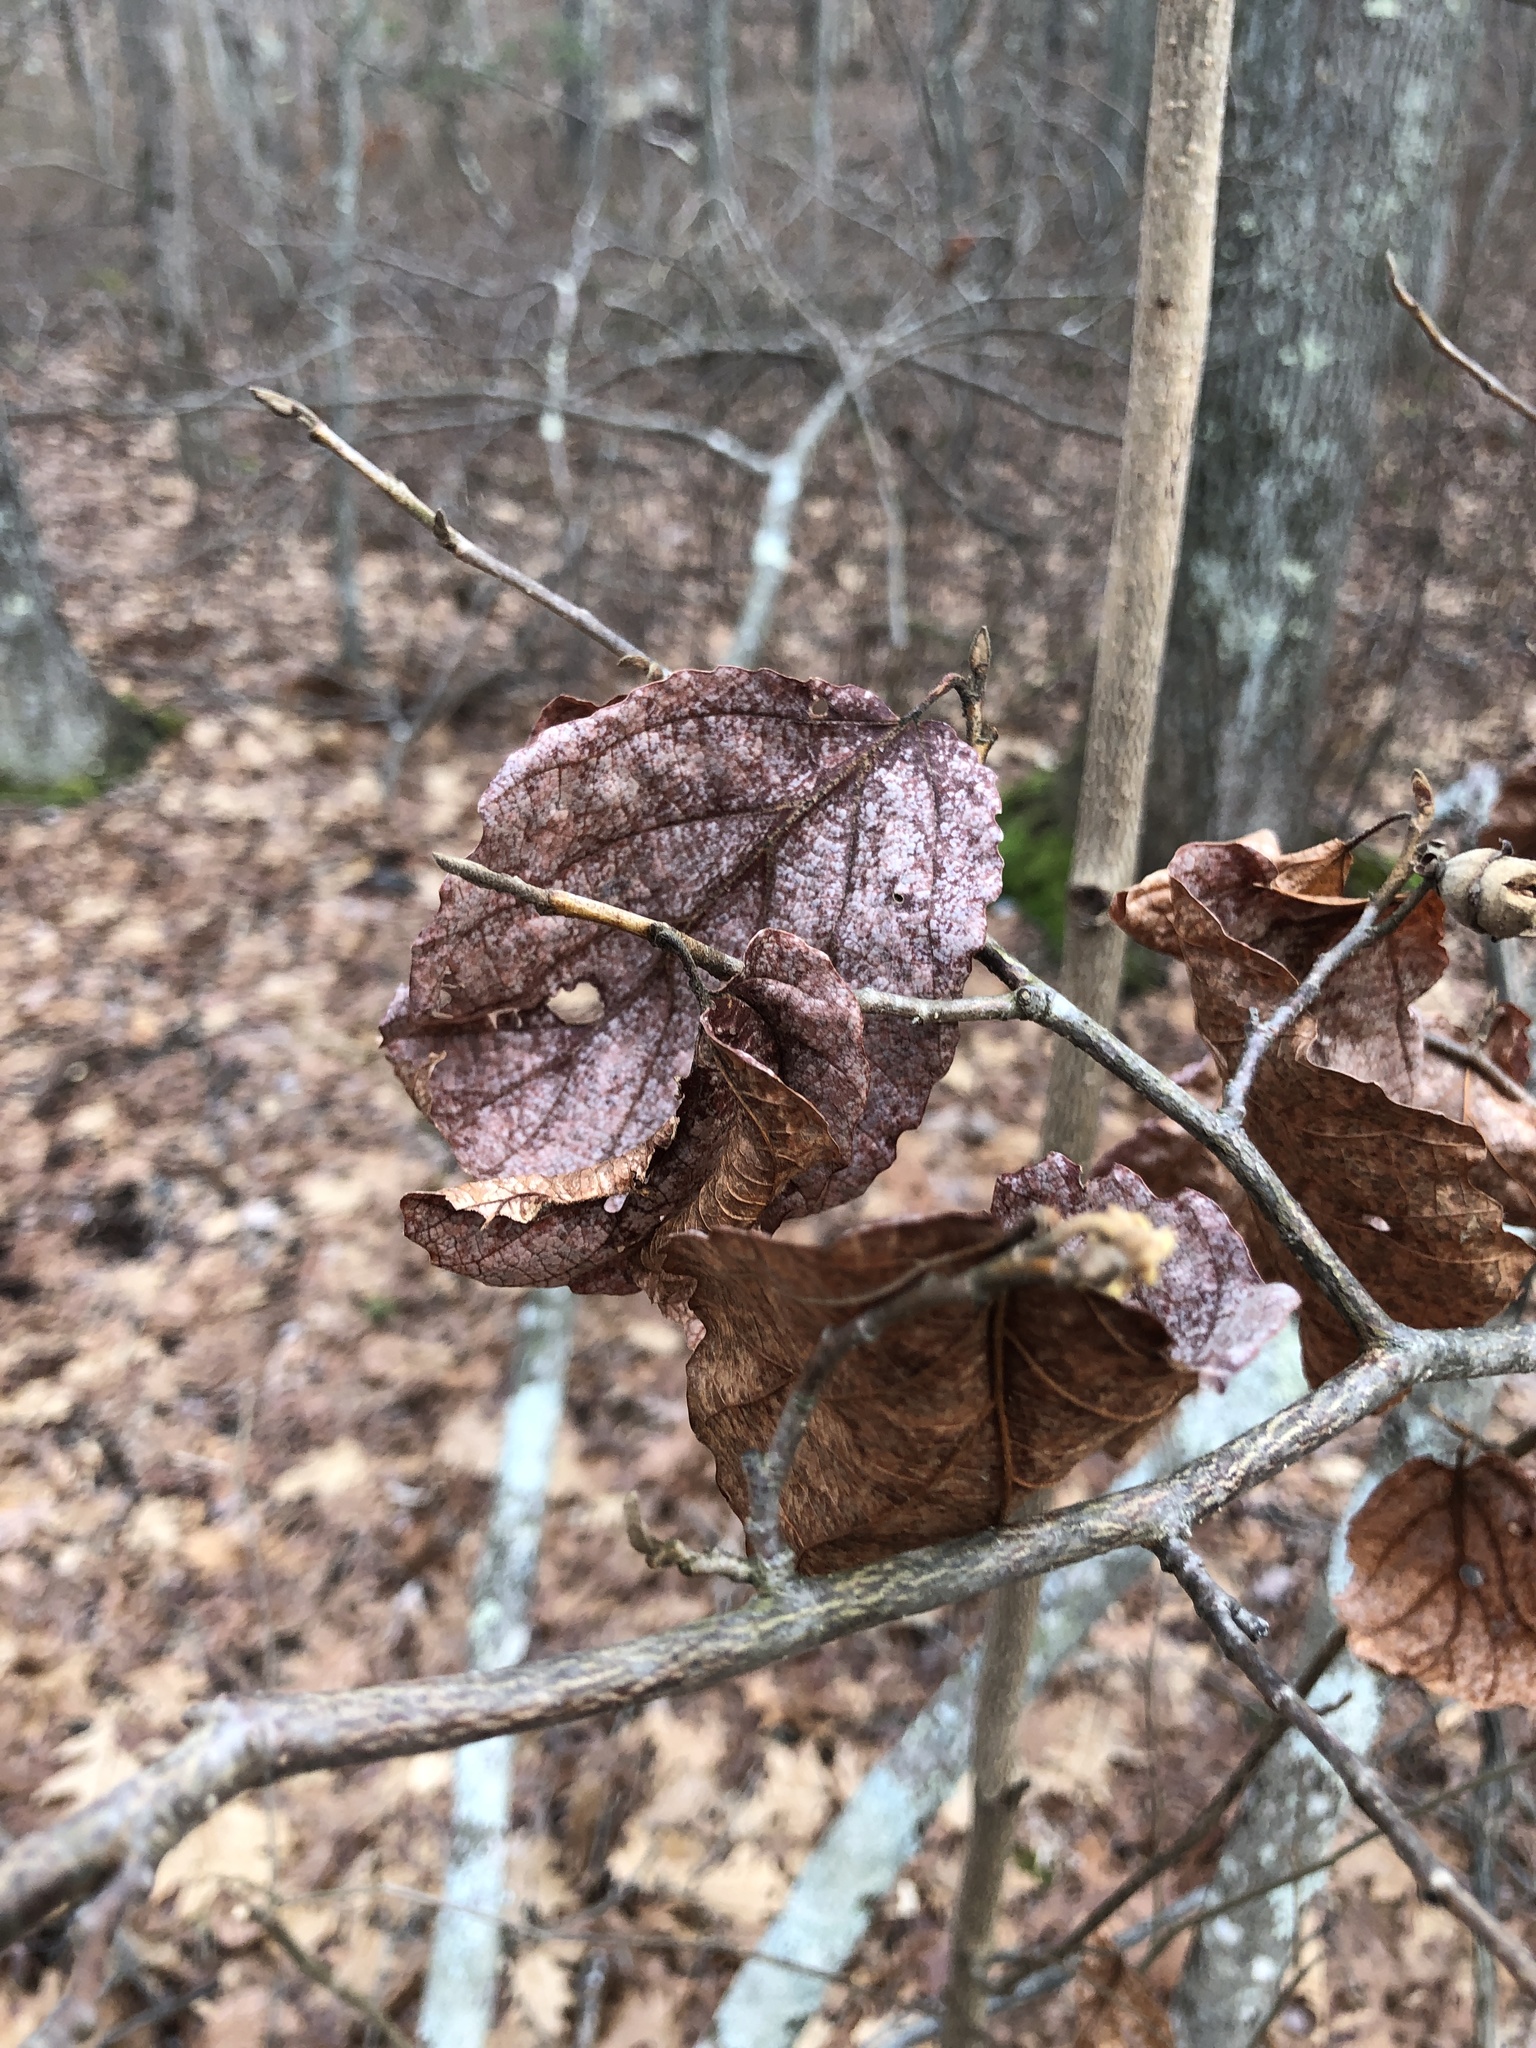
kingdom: Plantae
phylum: Tracheophyta
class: Magnoliopsida
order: Saxifragales
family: Hamamelidaceae
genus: Hamamelis
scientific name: Hamamelis virginiana
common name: Witch-hazel
